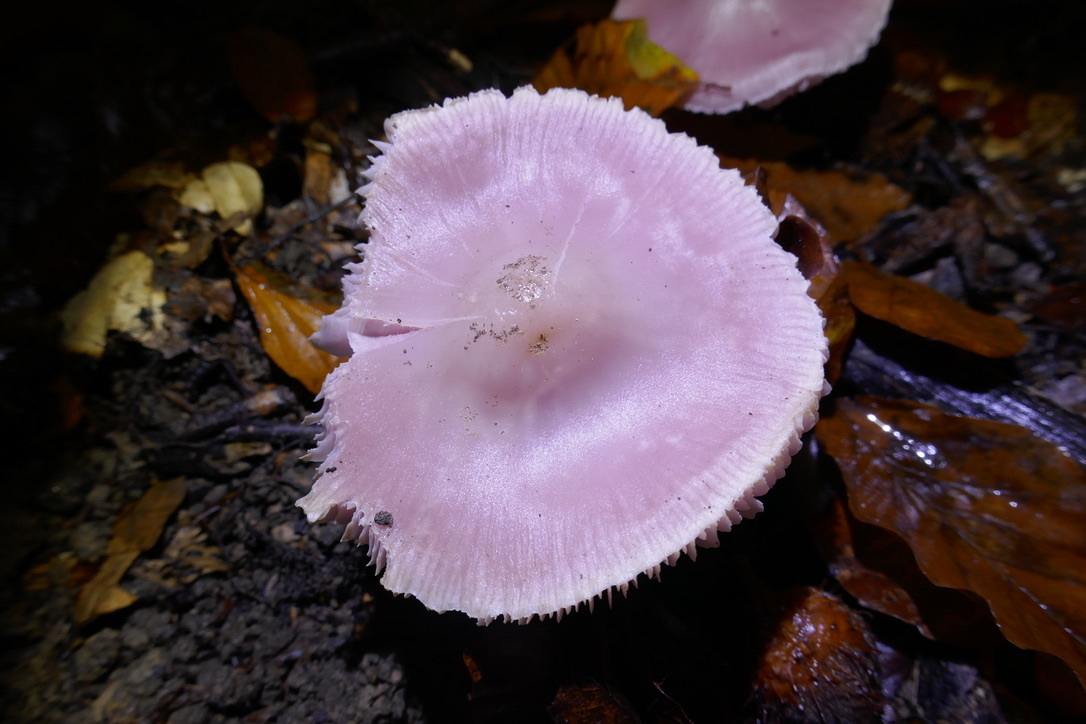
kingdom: Fungi
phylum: Basidiomycota
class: Agaricomycetes
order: Agaricales
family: Mycenaceae
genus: Mycena
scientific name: Mycena rosea
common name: Rosy bonnet
